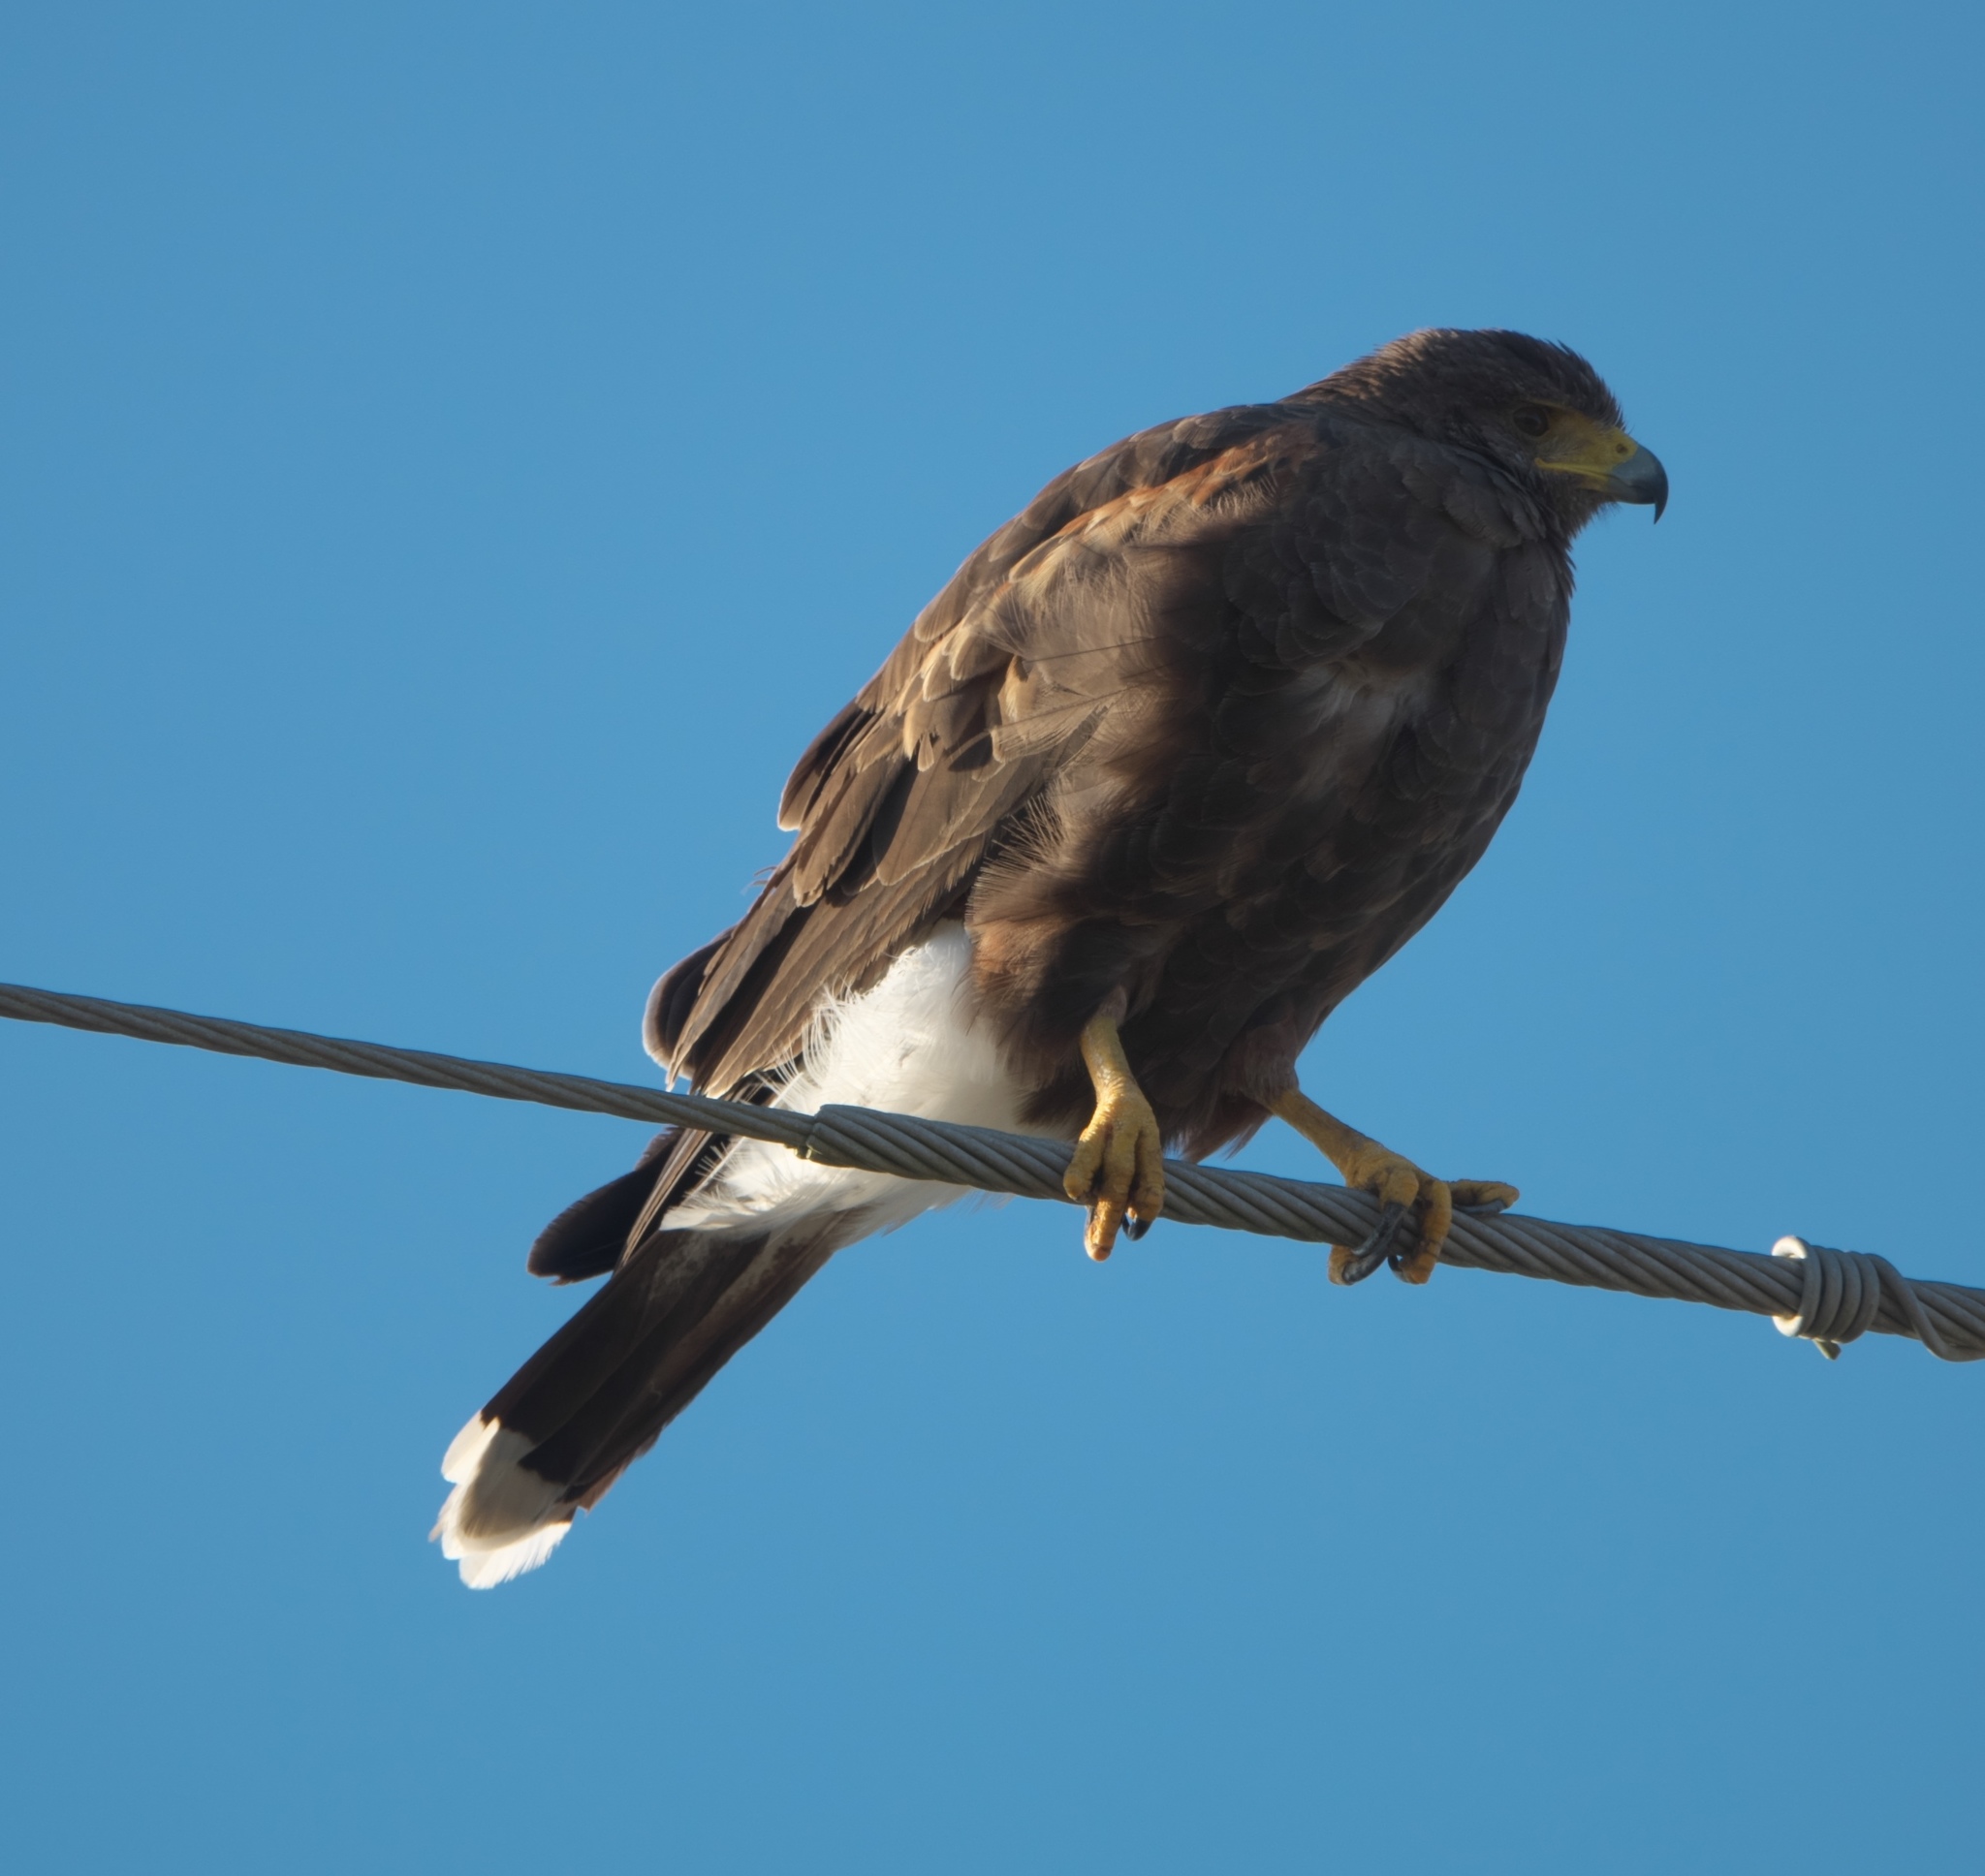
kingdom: Animalia
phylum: Chordata
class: Aves
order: Accipitriformes
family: Accipitridae
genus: Parabuteo
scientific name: Parabuteo unicinctus
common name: Harris's hawk
